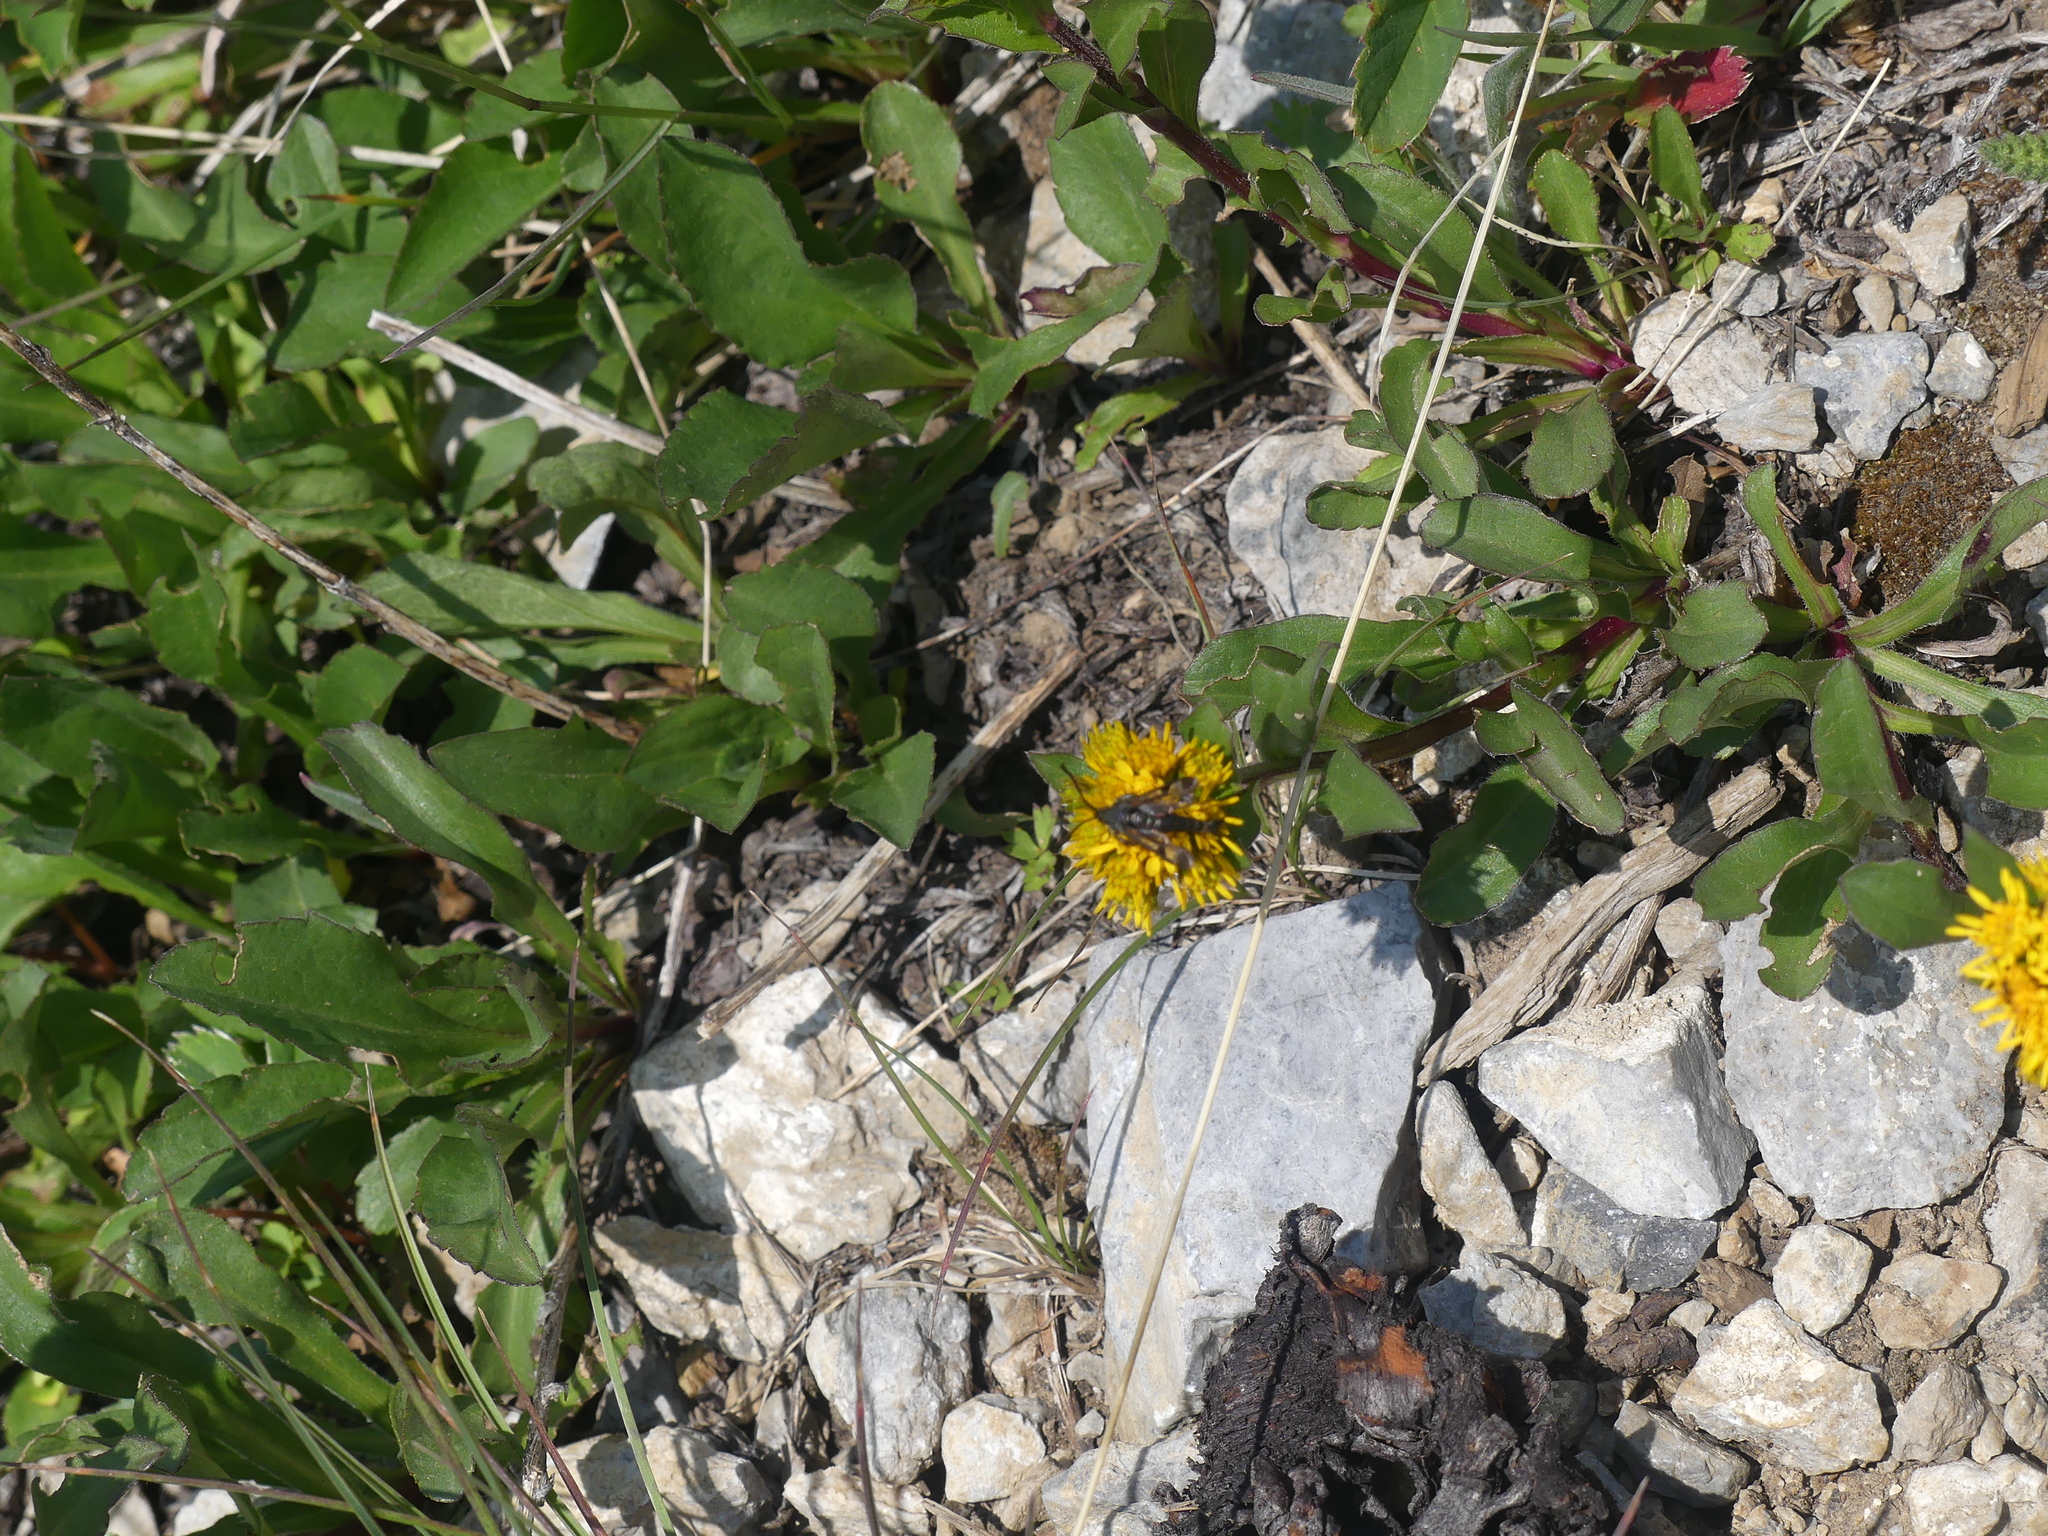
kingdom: Animalia
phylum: Arthropoda
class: Insecta
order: Lepidoptera
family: Sesiidae
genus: Albuna
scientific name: Albuna pyramidalis
